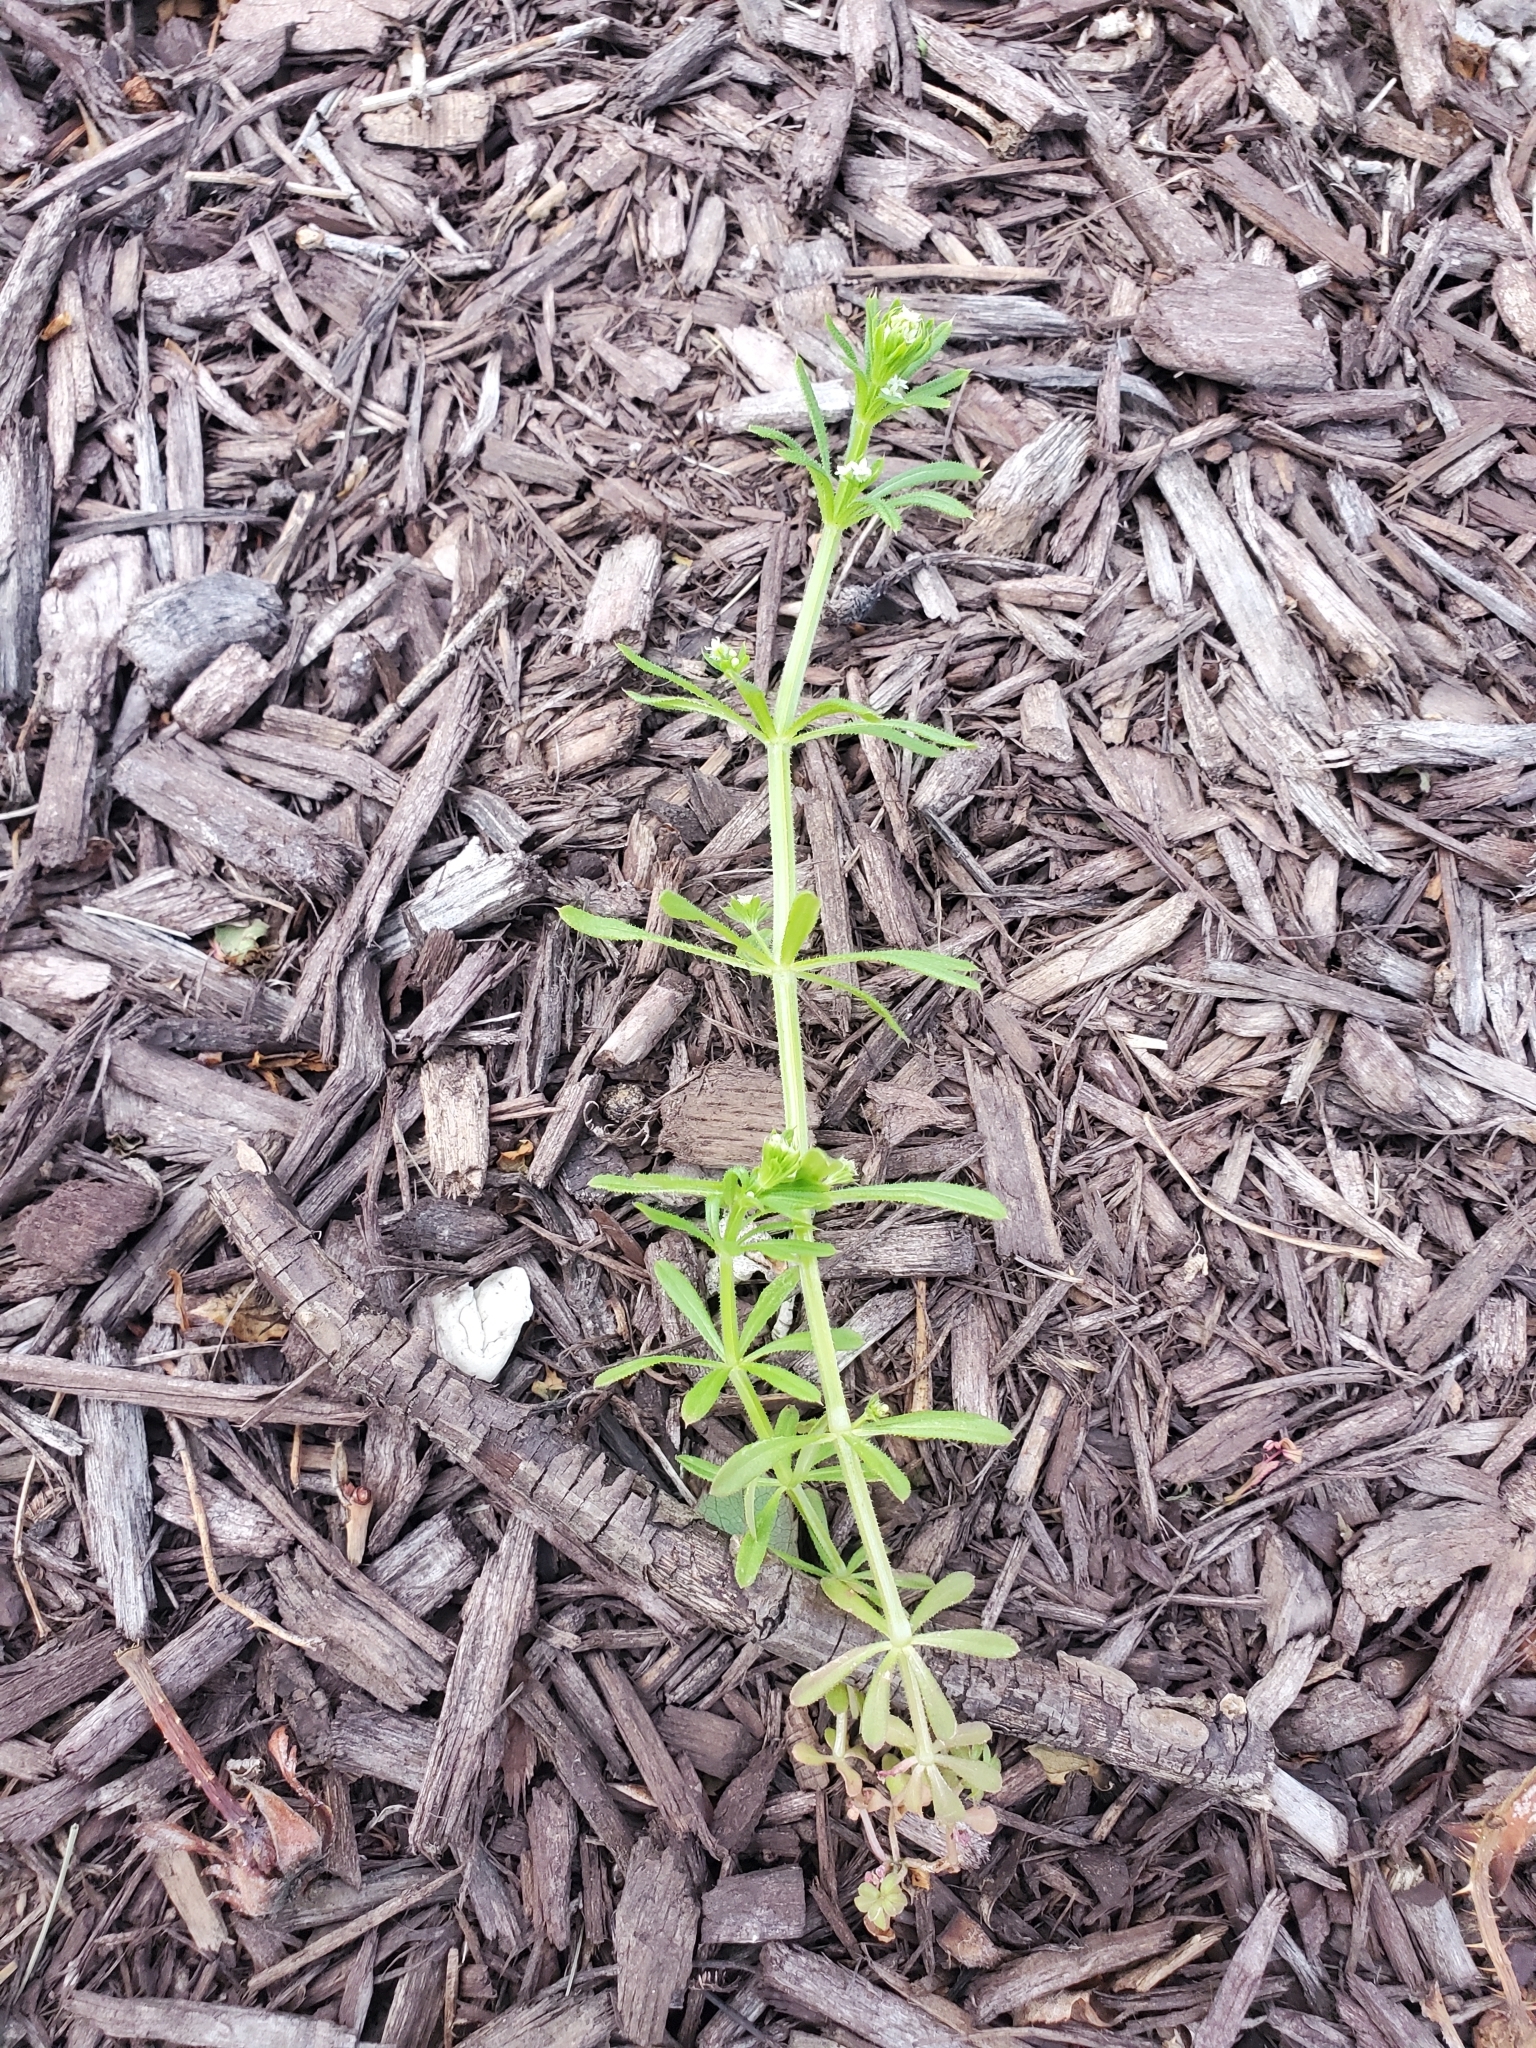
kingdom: Plantae
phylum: Tracheophyta
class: Magnoliopsida
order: Gentianales
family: Rubiaceae
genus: Galium
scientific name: Galium aparine
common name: Cleavers
